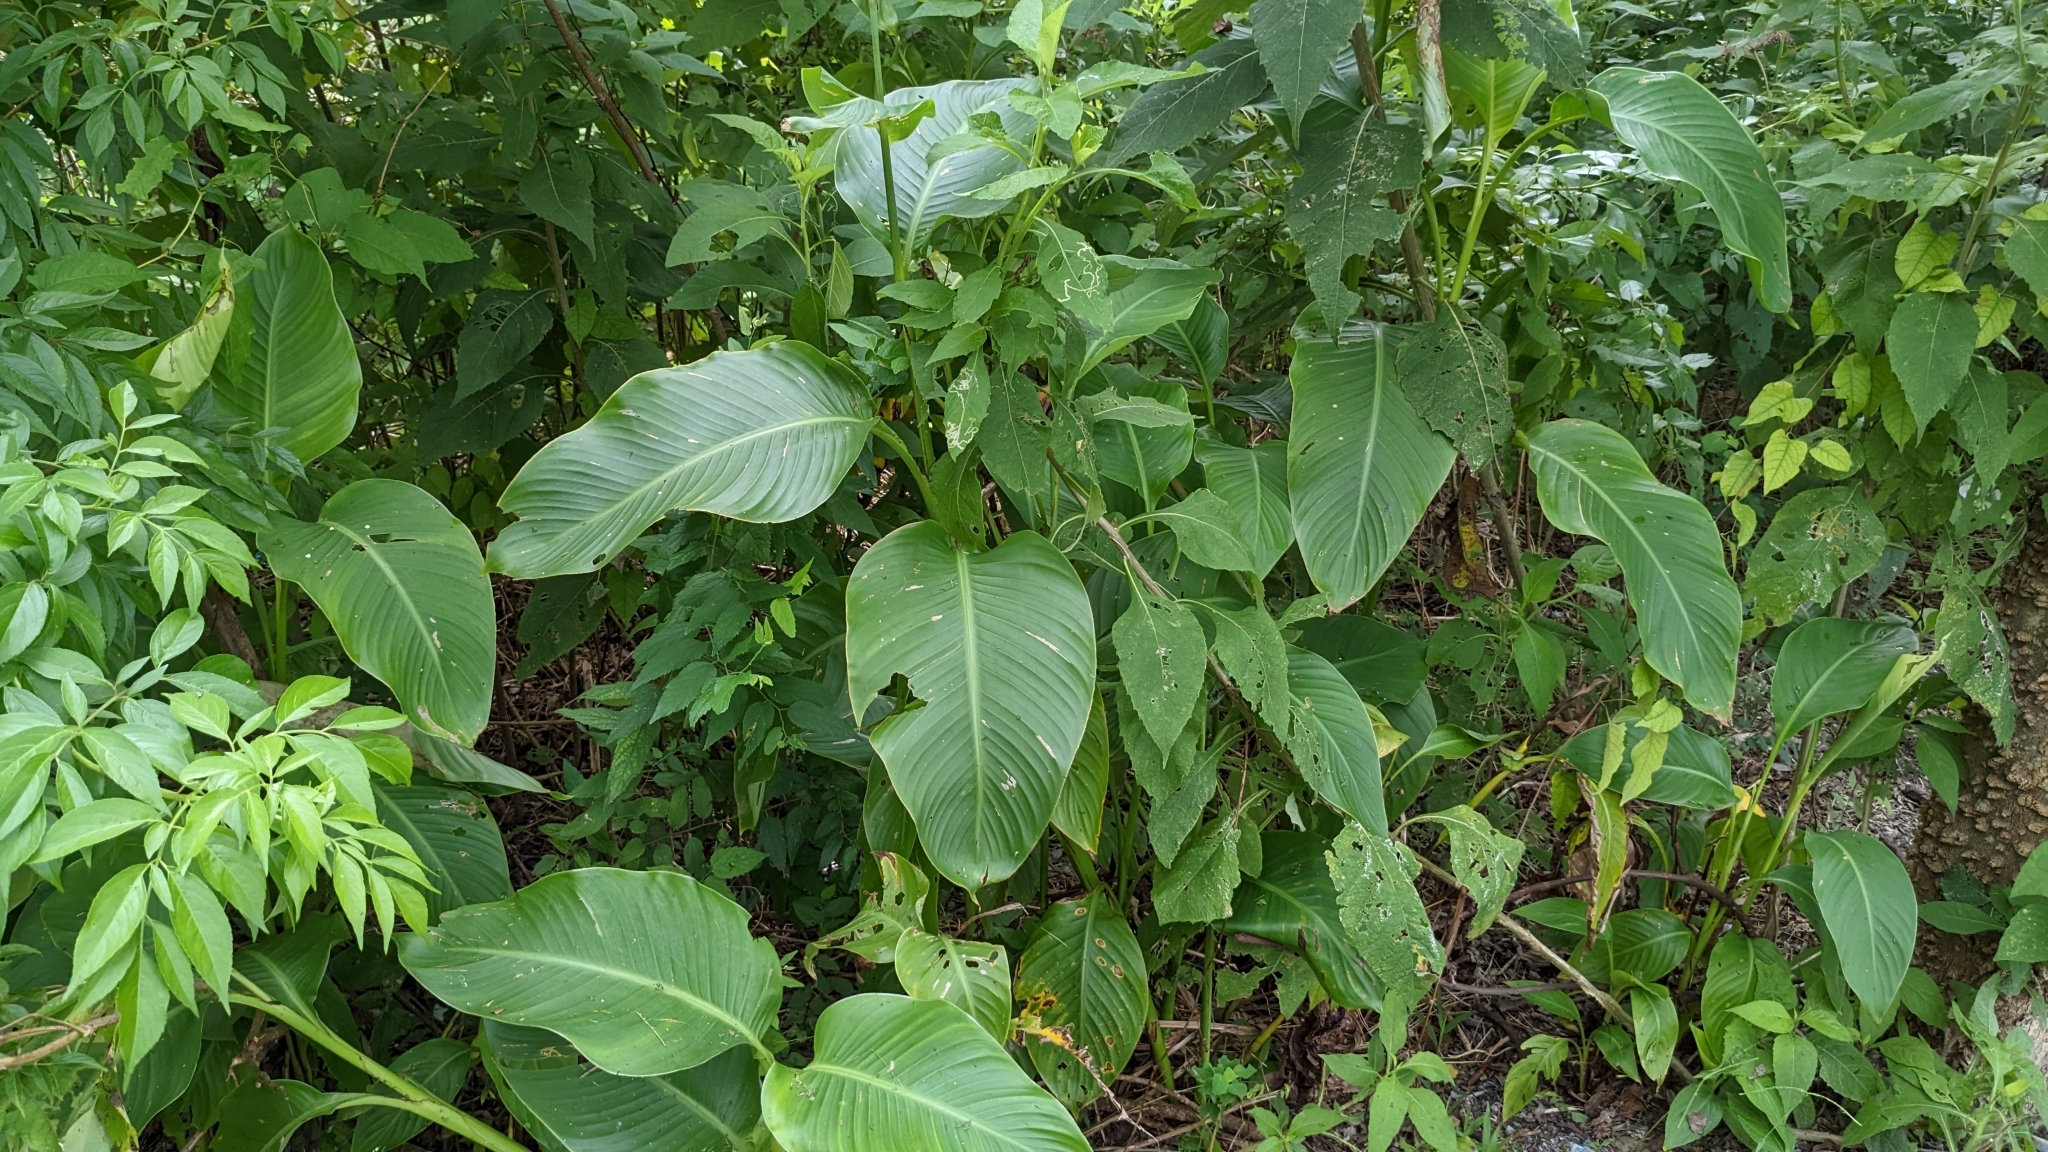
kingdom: Plantae
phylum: Tracheophyta
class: Liliopsida
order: Zingiberales
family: Cannaceae
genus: Canna
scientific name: Canna indica
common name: Indian shot
